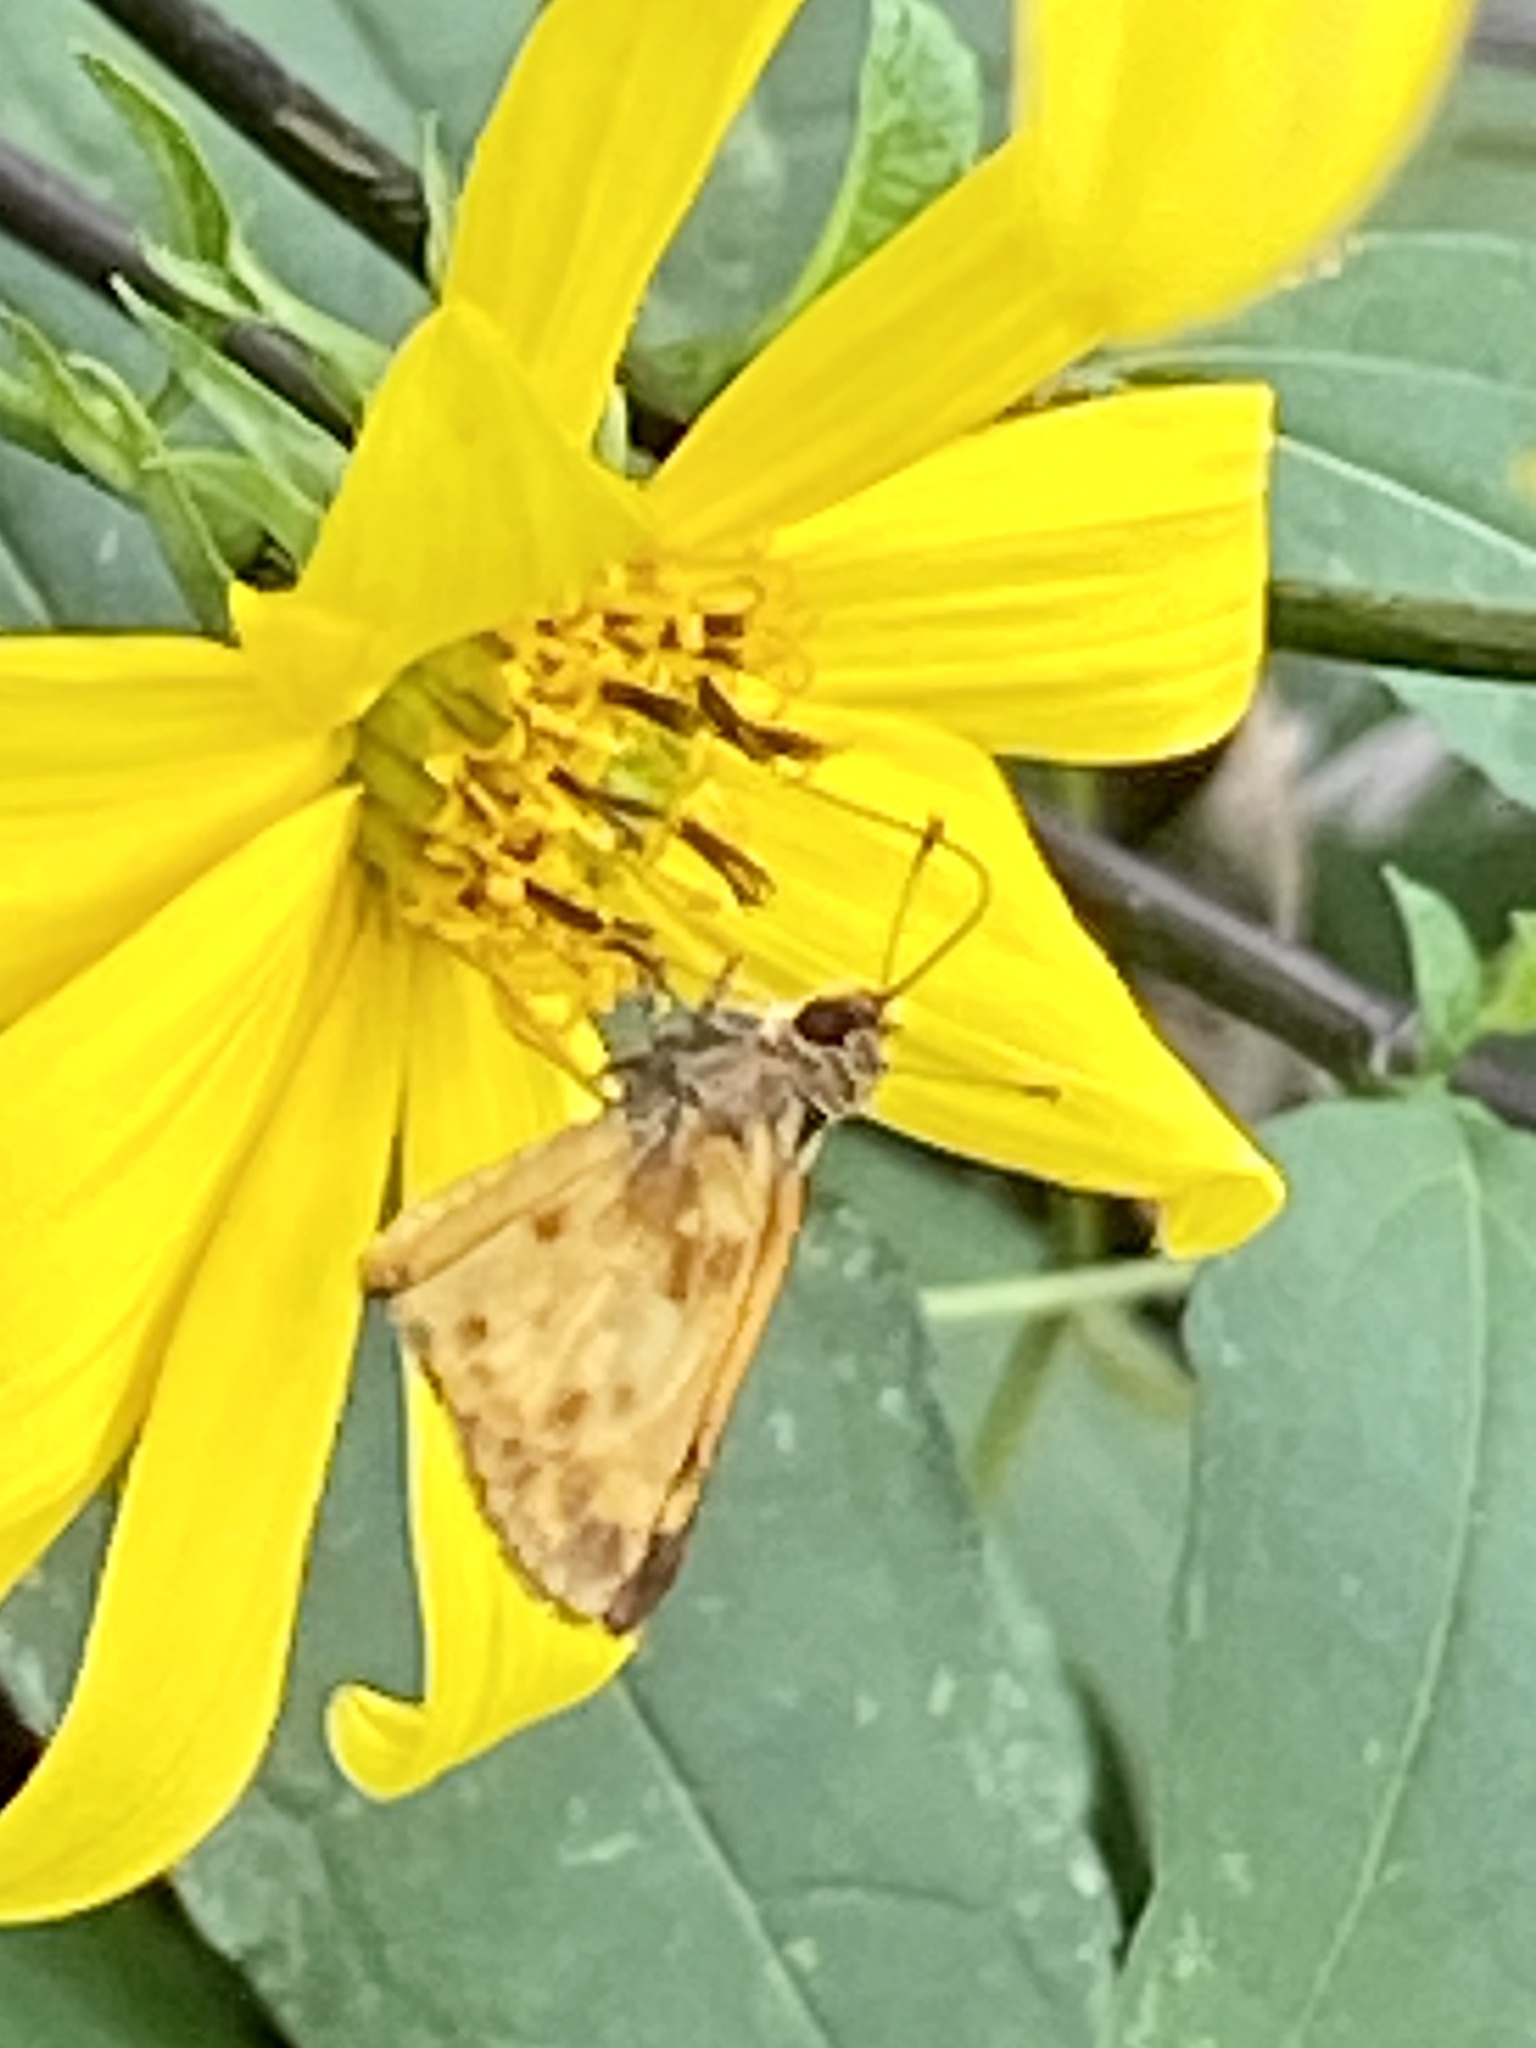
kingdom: Animalia
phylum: Arthropoda
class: Insecta
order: Lepidoptera
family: Hesperiidae
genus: Lon
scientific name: Lon zabulon
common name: Zabulon skipper
